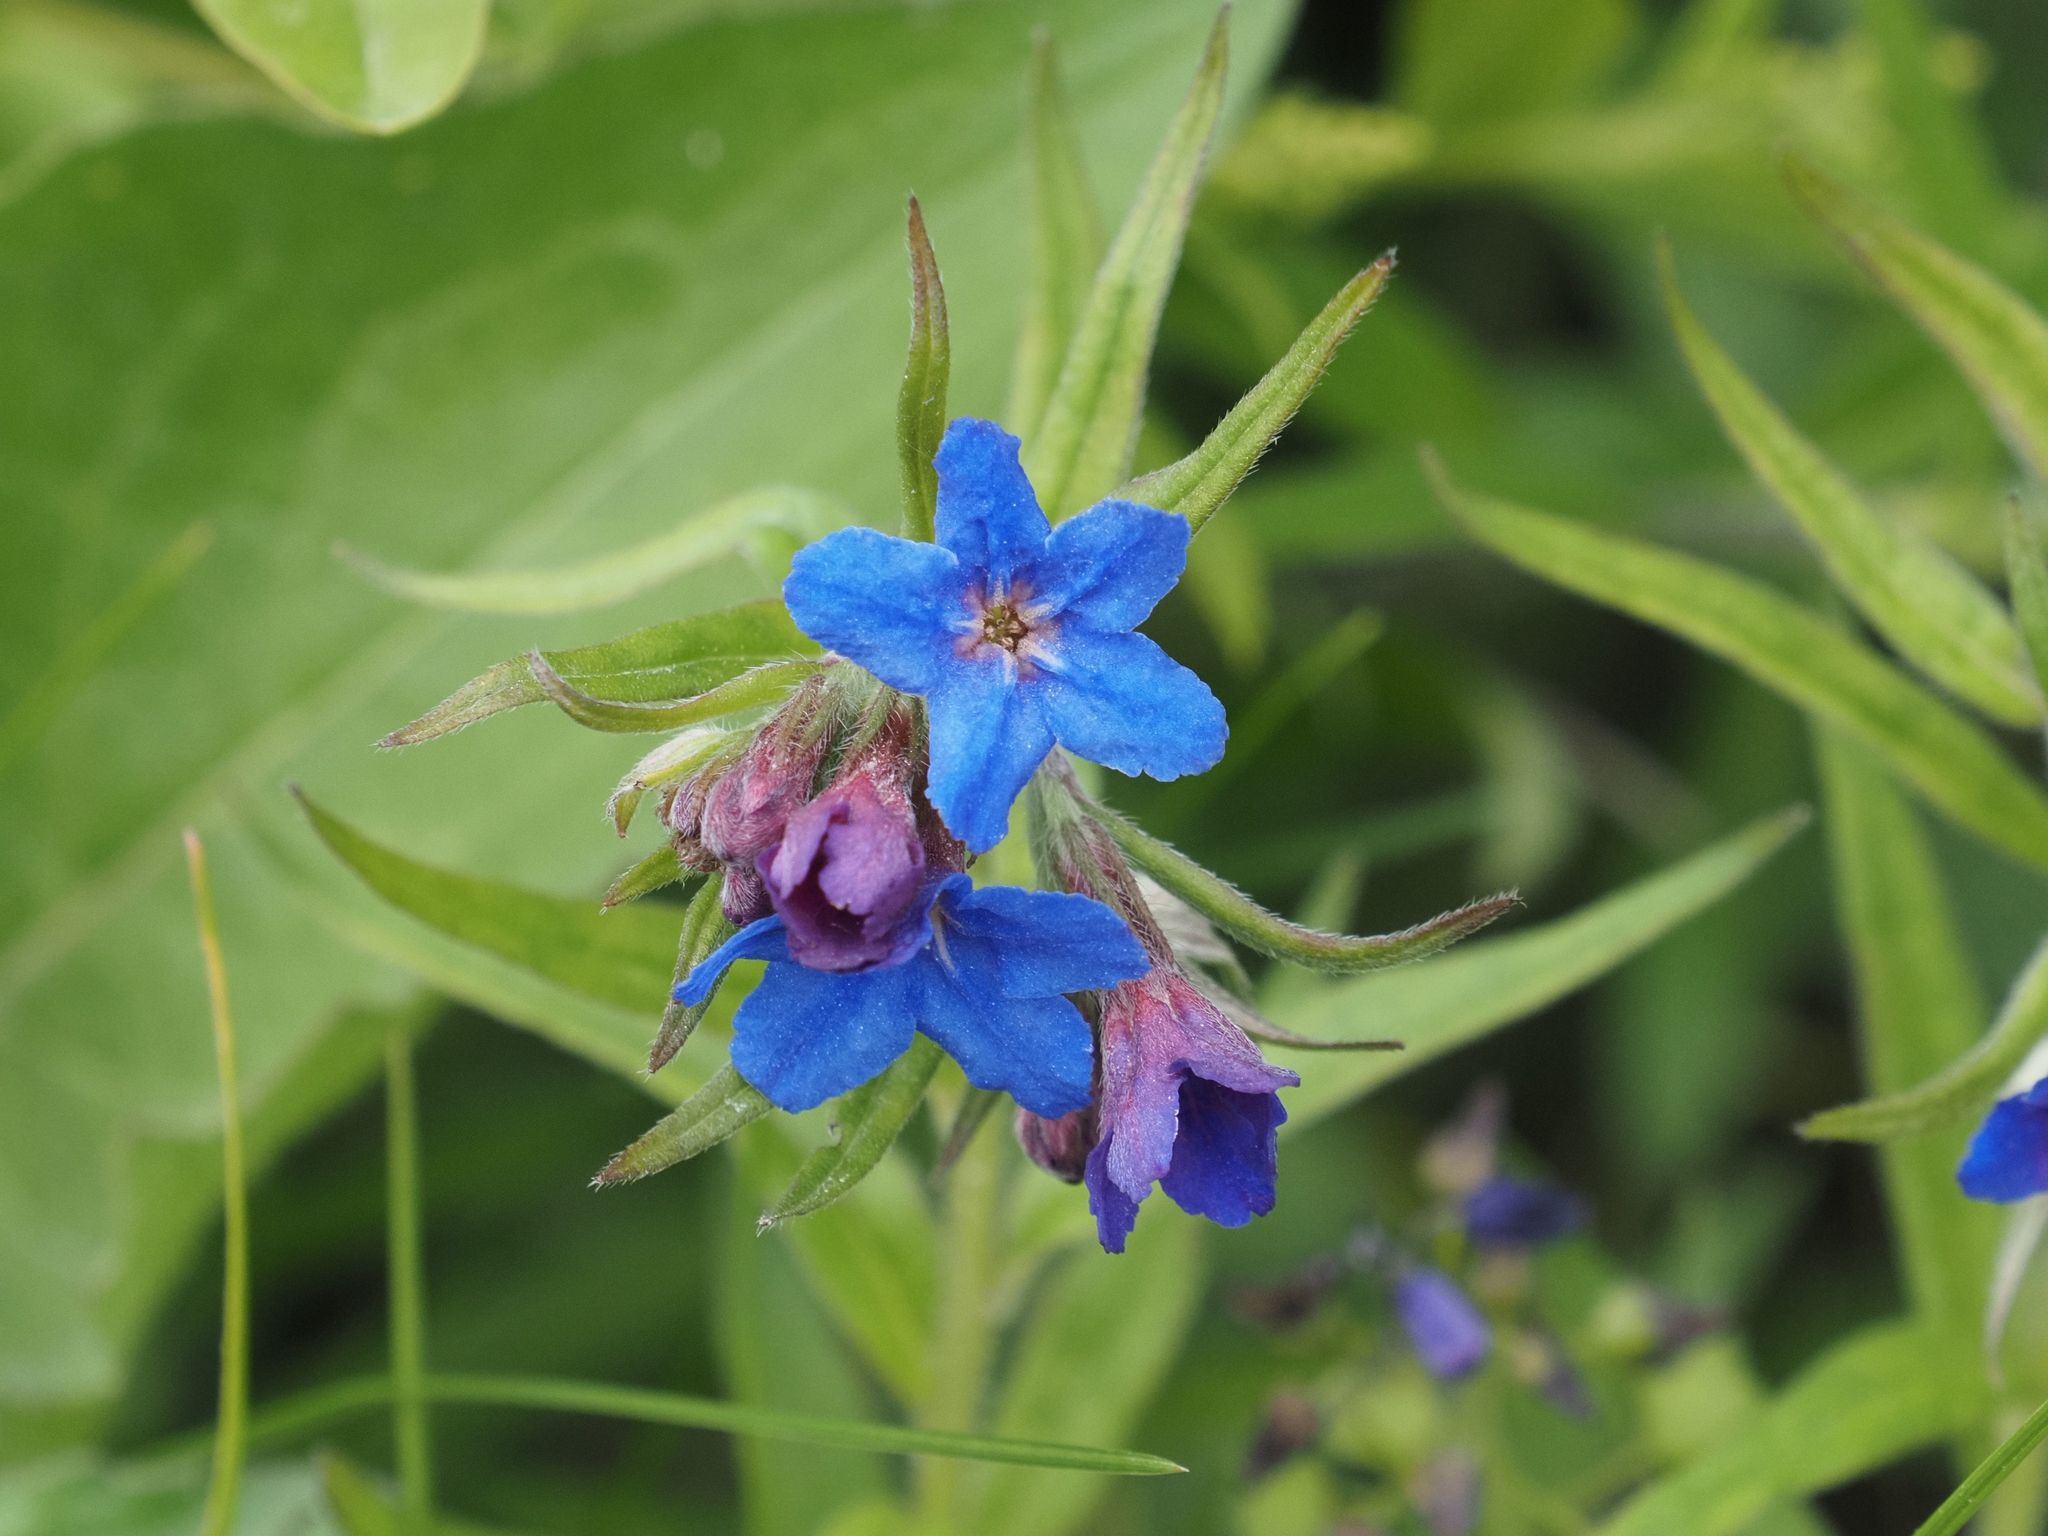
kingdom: Plantae
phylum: Tracheophyta
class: Magnoliopsida
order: Boraginales
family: Boraginaceae
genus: Aegonychon
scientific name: Aegonychon purpurocaeruleum
